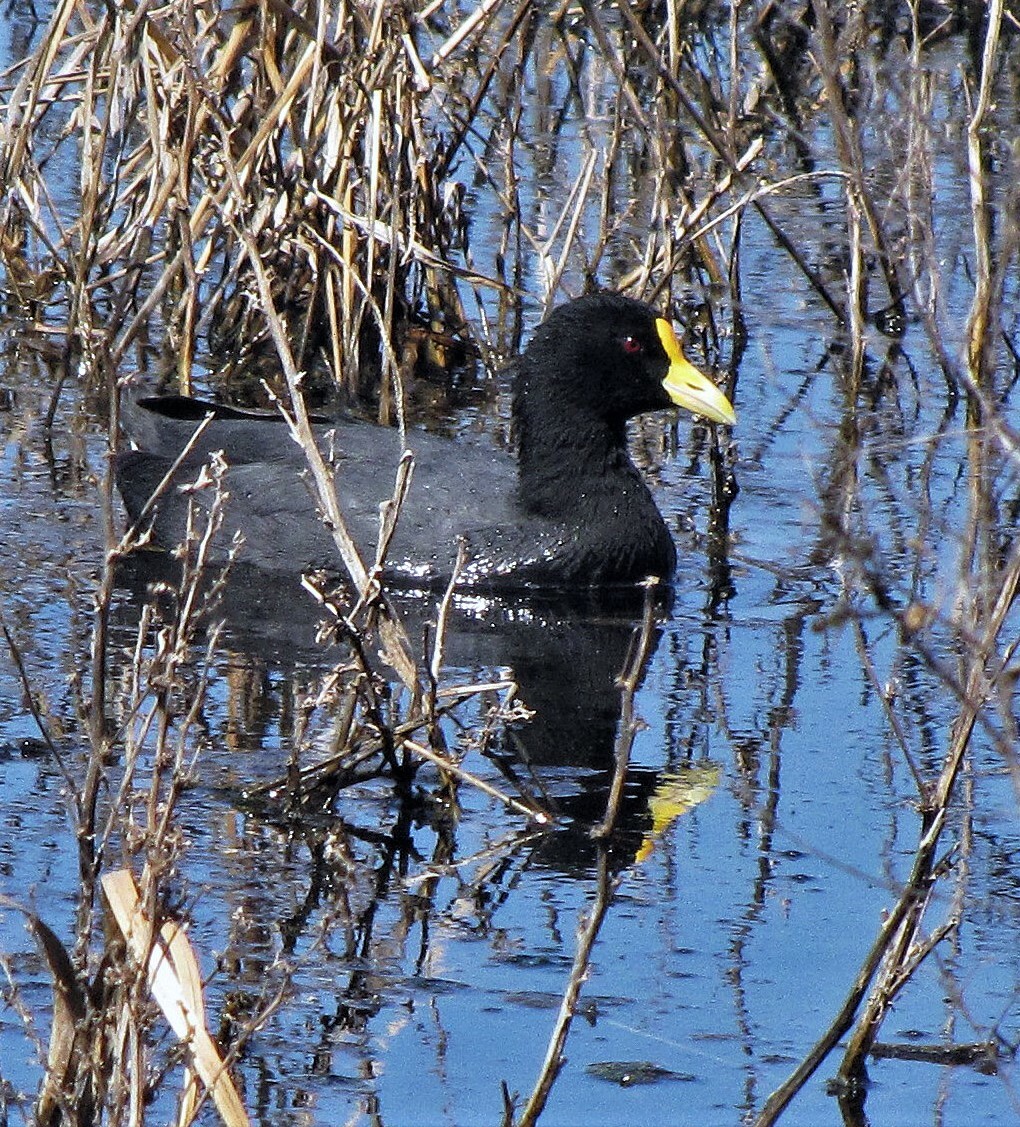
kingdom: Animalia
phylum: Chordata
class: Aves
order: Gruiformes
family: Rallidae
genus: Fulica
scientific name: Fulica leucoptera
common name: White-winged coot
